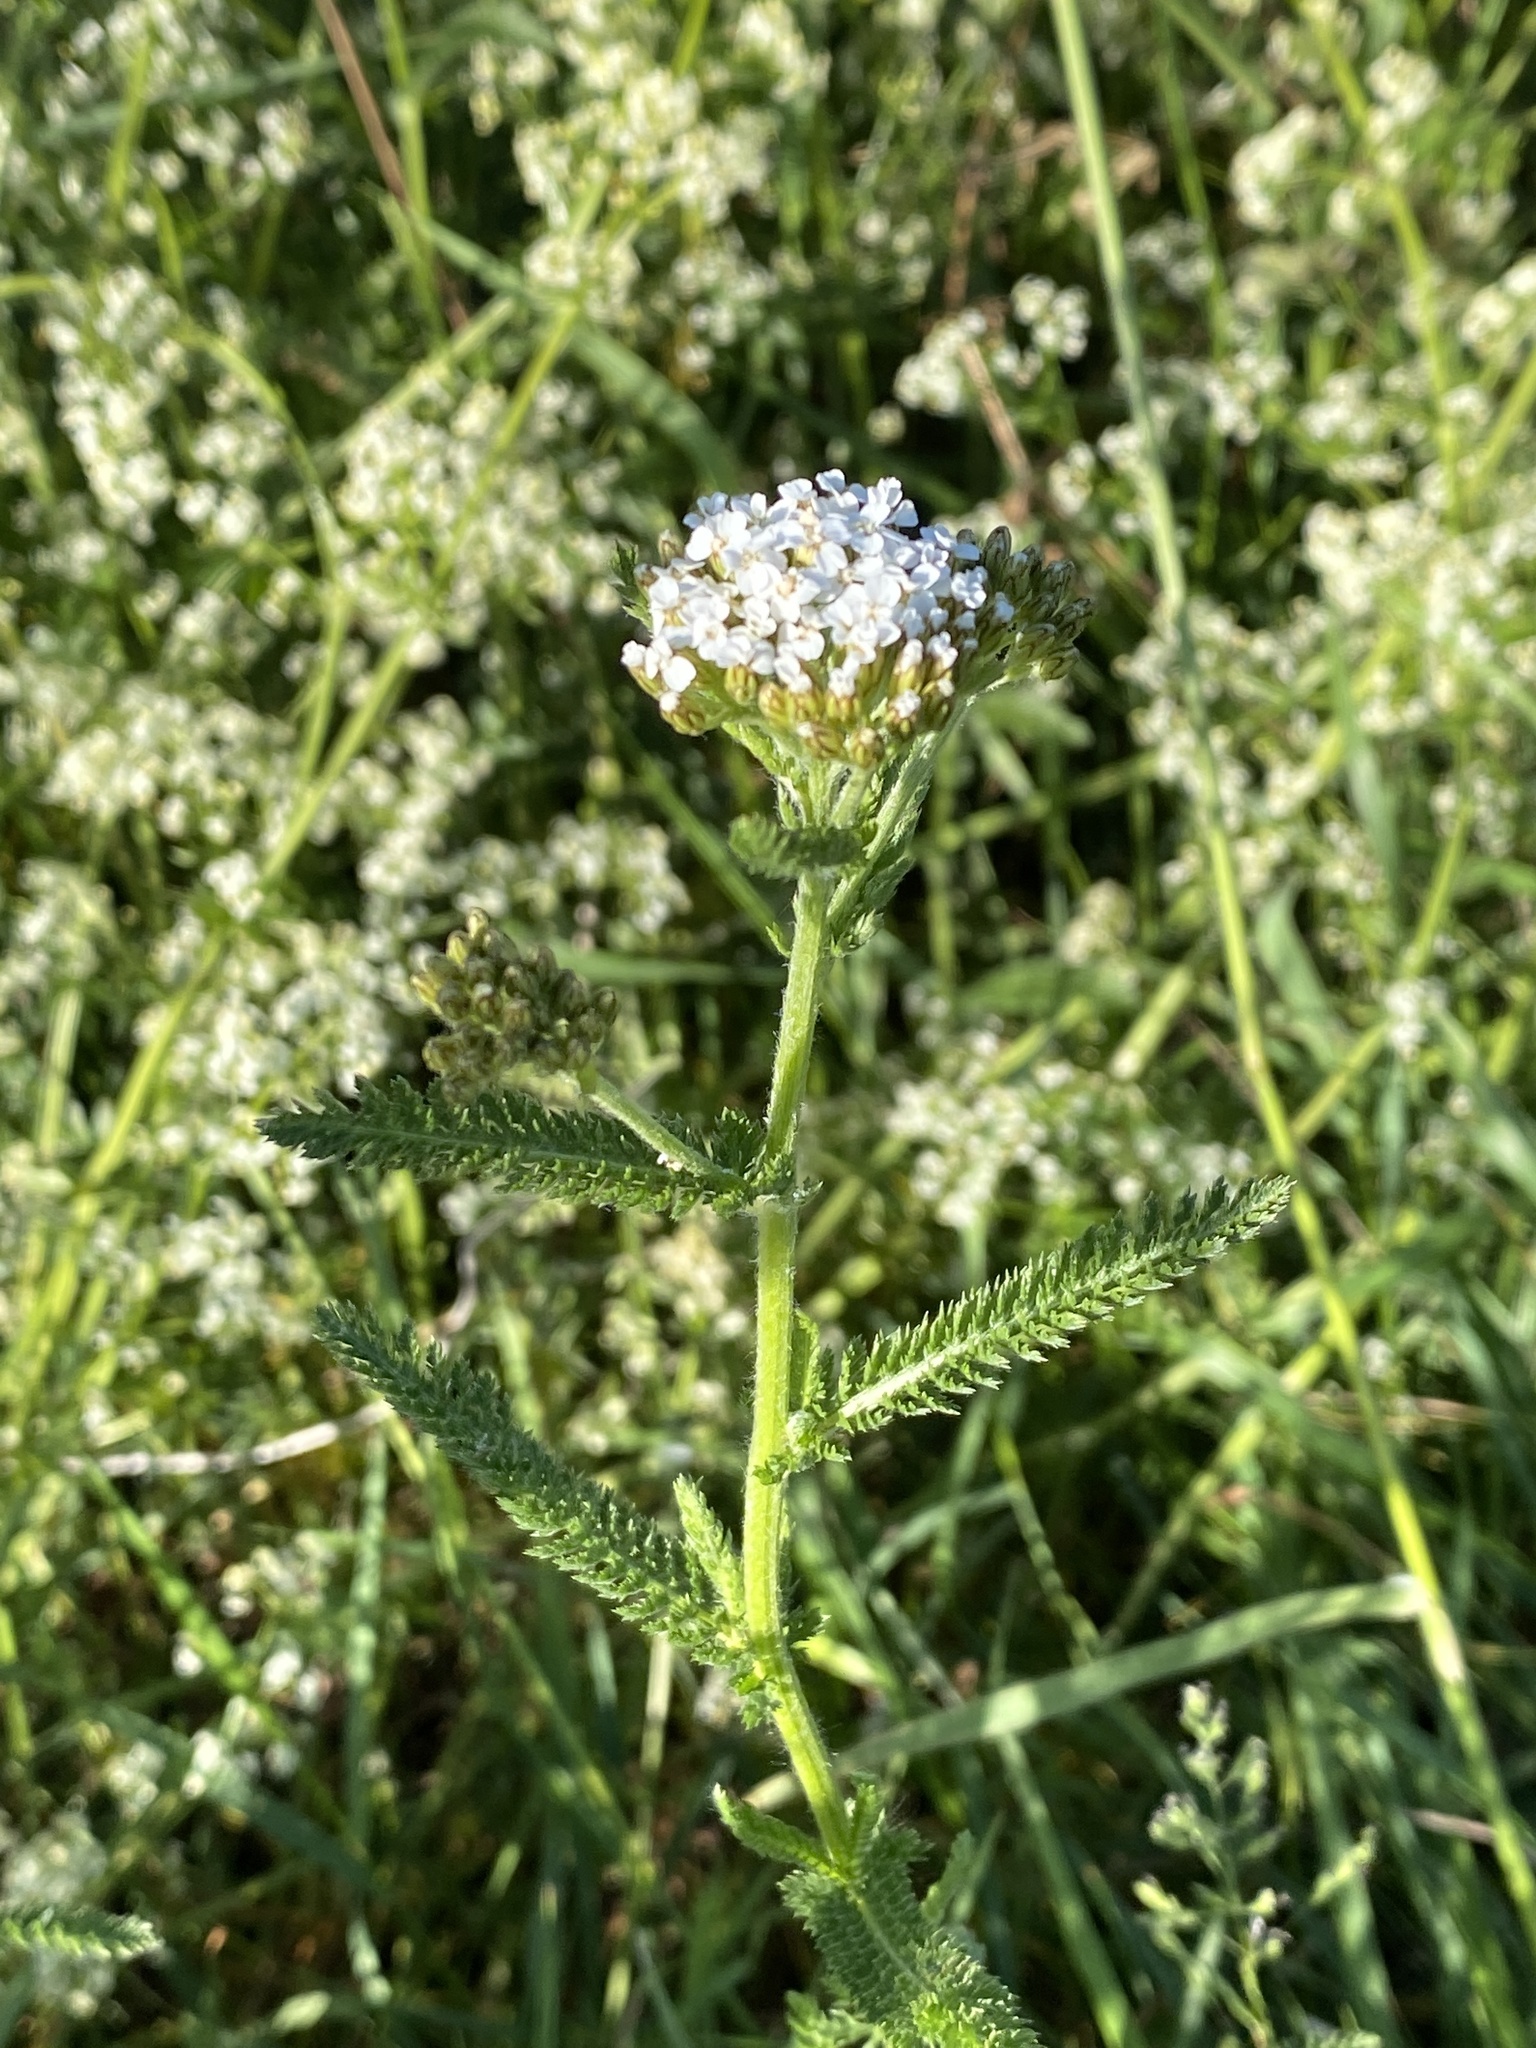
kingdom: Plantae
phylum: Tracheophyta
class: Magnoliopsida
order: Asterales
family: Asteraceae
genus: Achillea
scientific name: Achillea millefolium
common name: Yarrow
